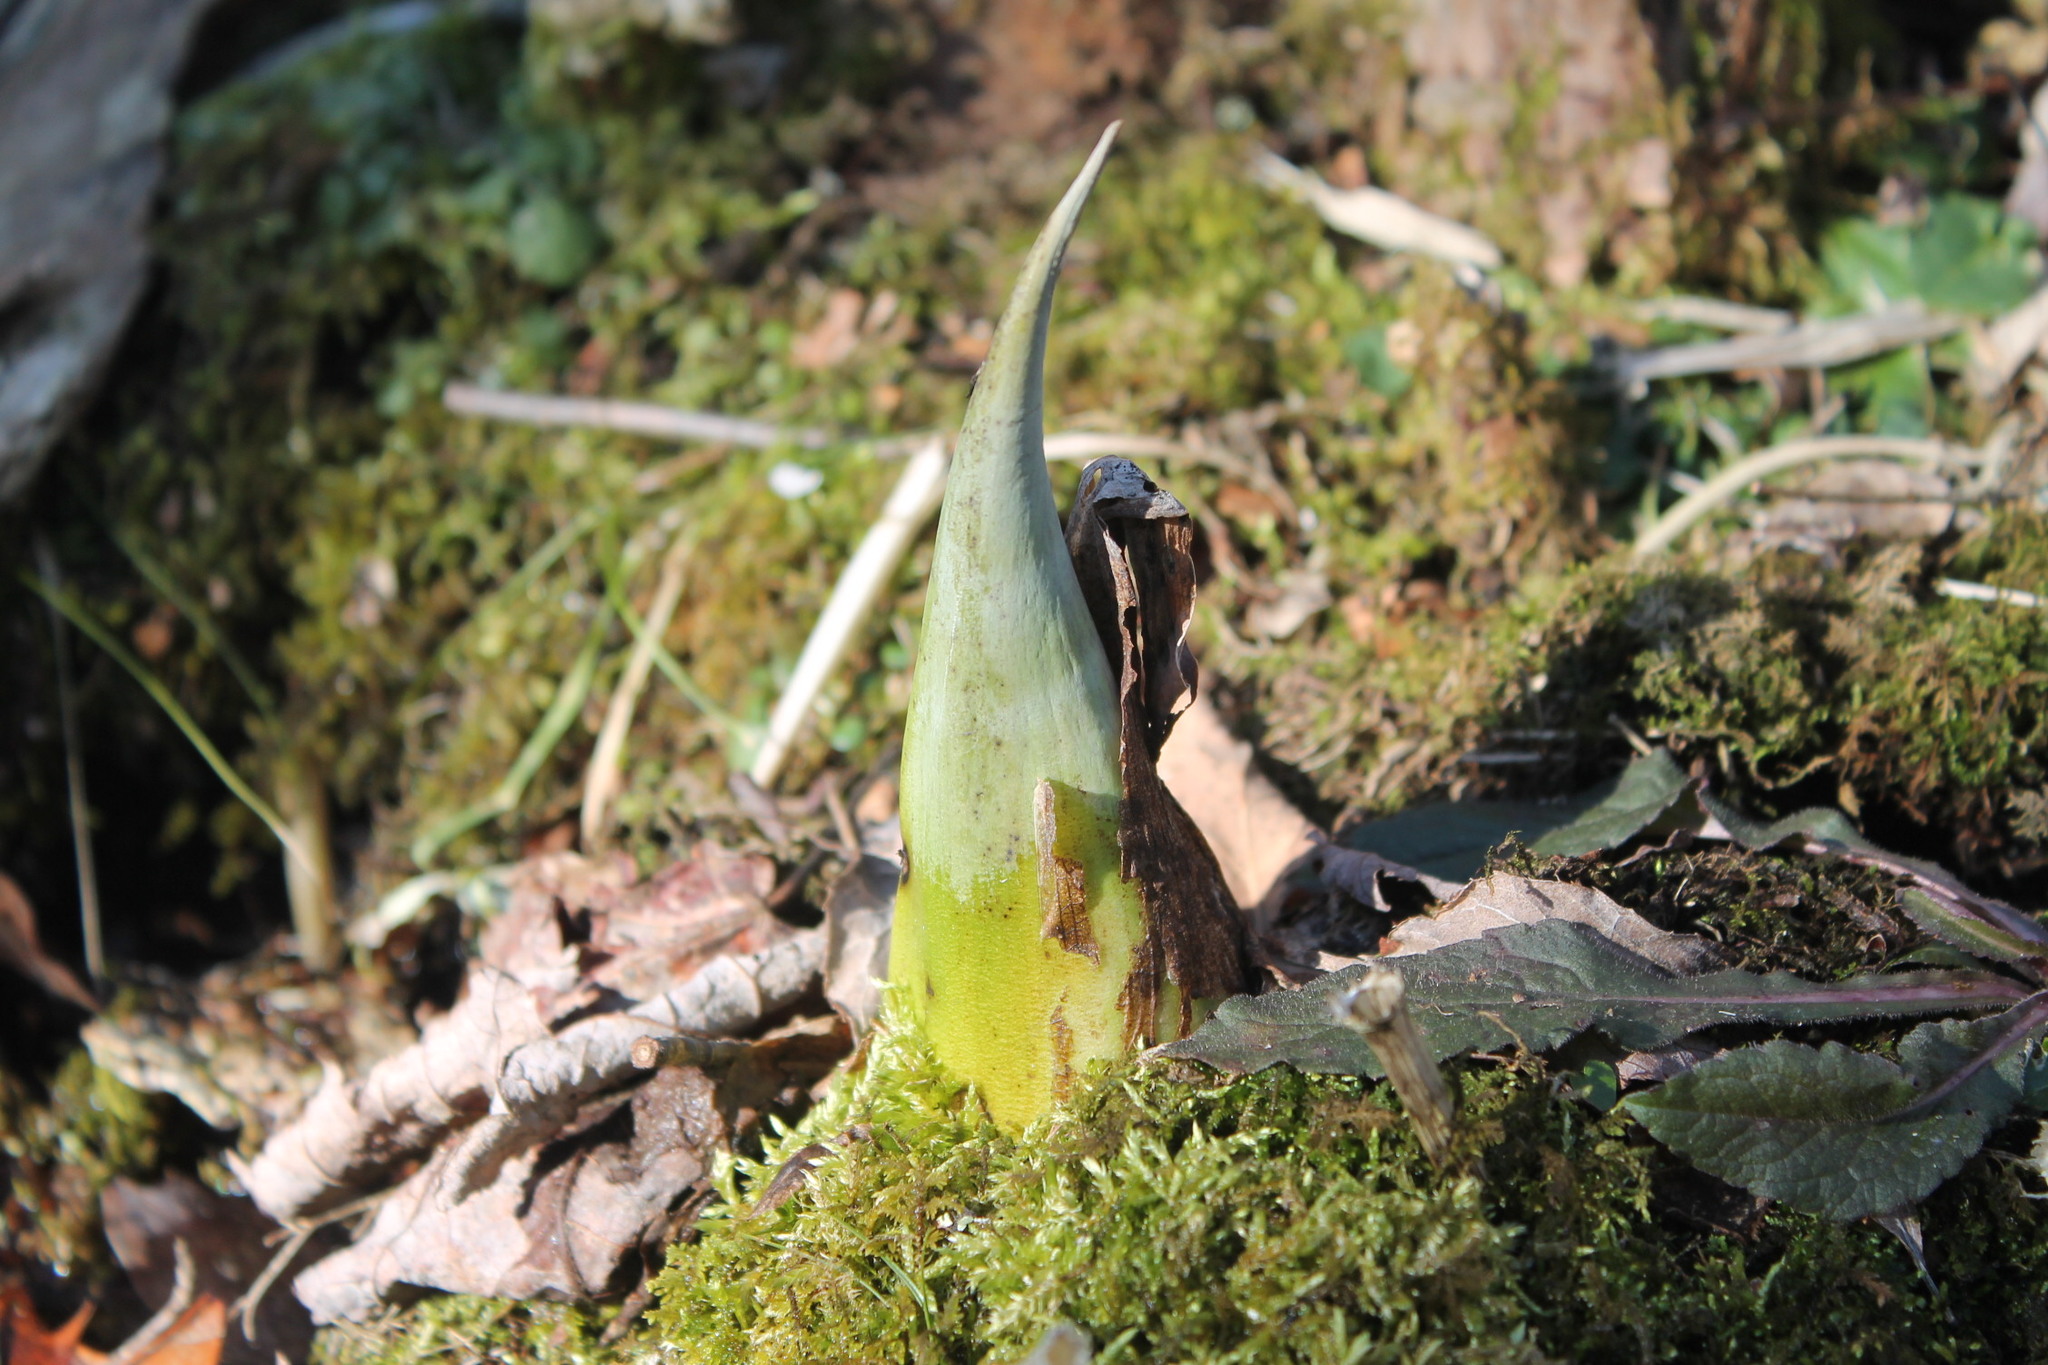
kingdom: Plantae
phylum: Tracheophyta
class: Liliopsida
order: Alismatales
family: Araceae
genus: Symplocarpus
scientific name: Symplocarpus foetidus
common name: Eastern skunk cabbage
